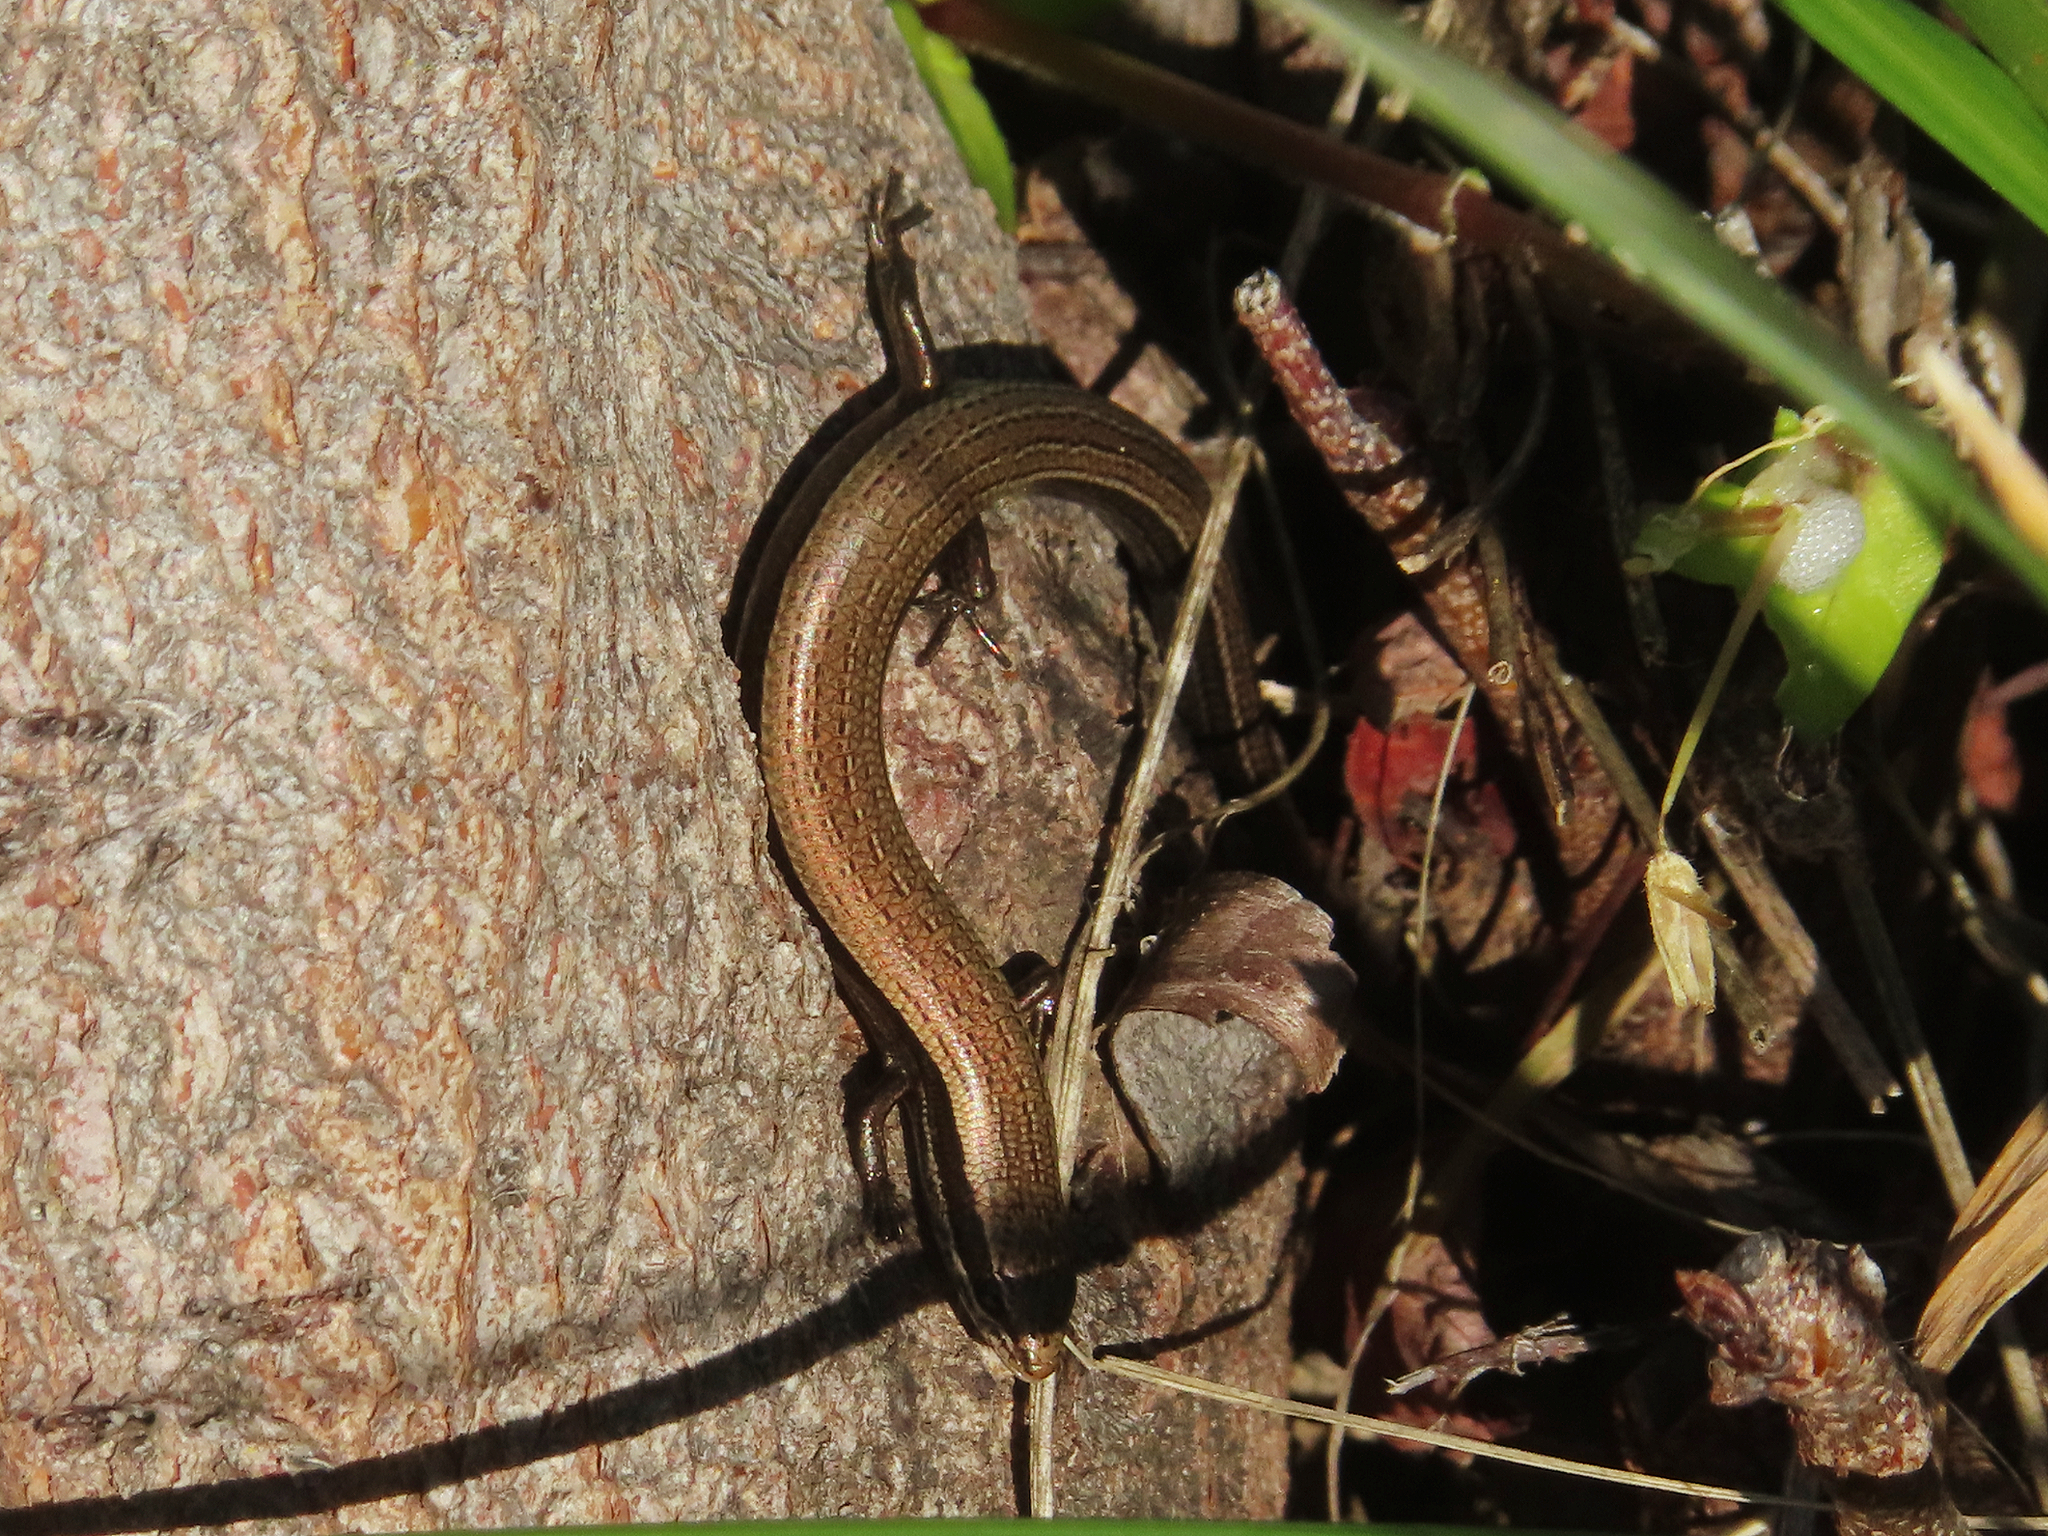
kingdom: Animalia
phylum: Chordata
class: Squamata
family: Scincidae
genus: Ablepharus
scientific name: Ablepharus kitaibelii
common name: Juniper skink
